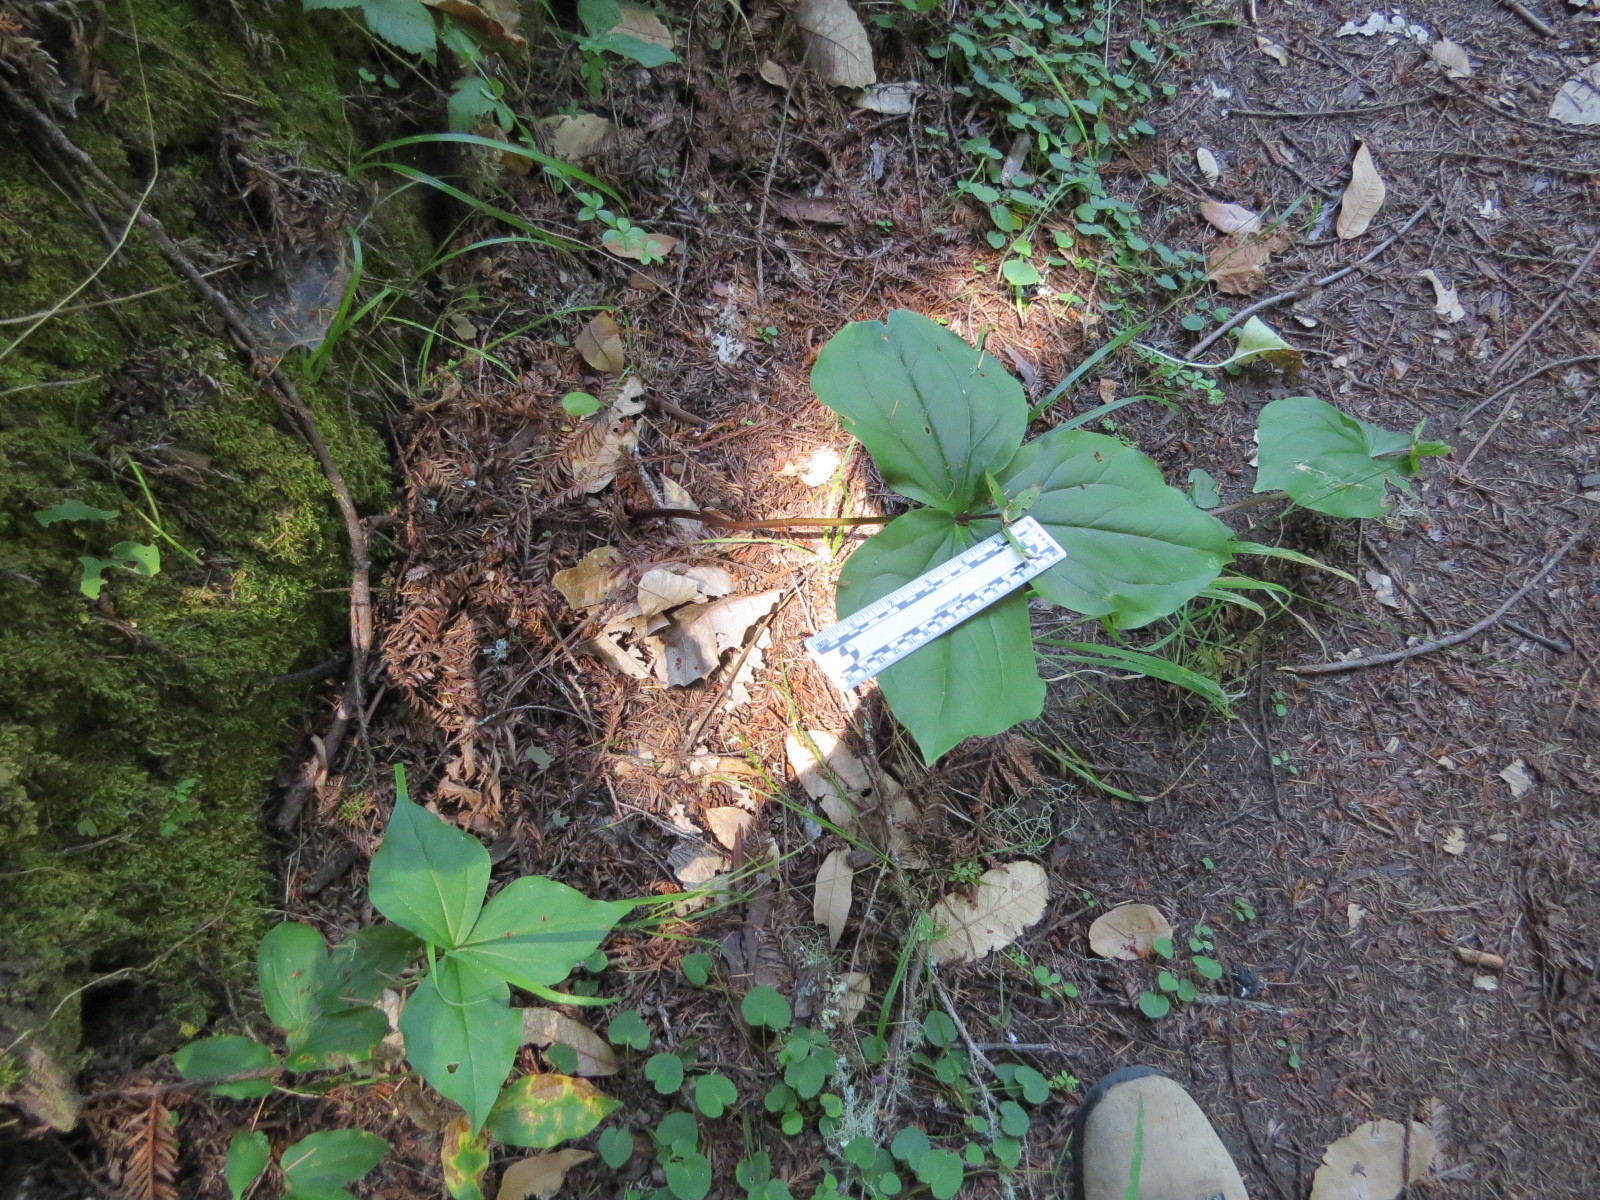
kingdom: Plantae
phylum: Tracheophyta
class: Liliopsida
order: Liliales
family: Melanthiaceae
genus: Trillium
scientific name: Trillium ovatum
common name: Pacific trillium
